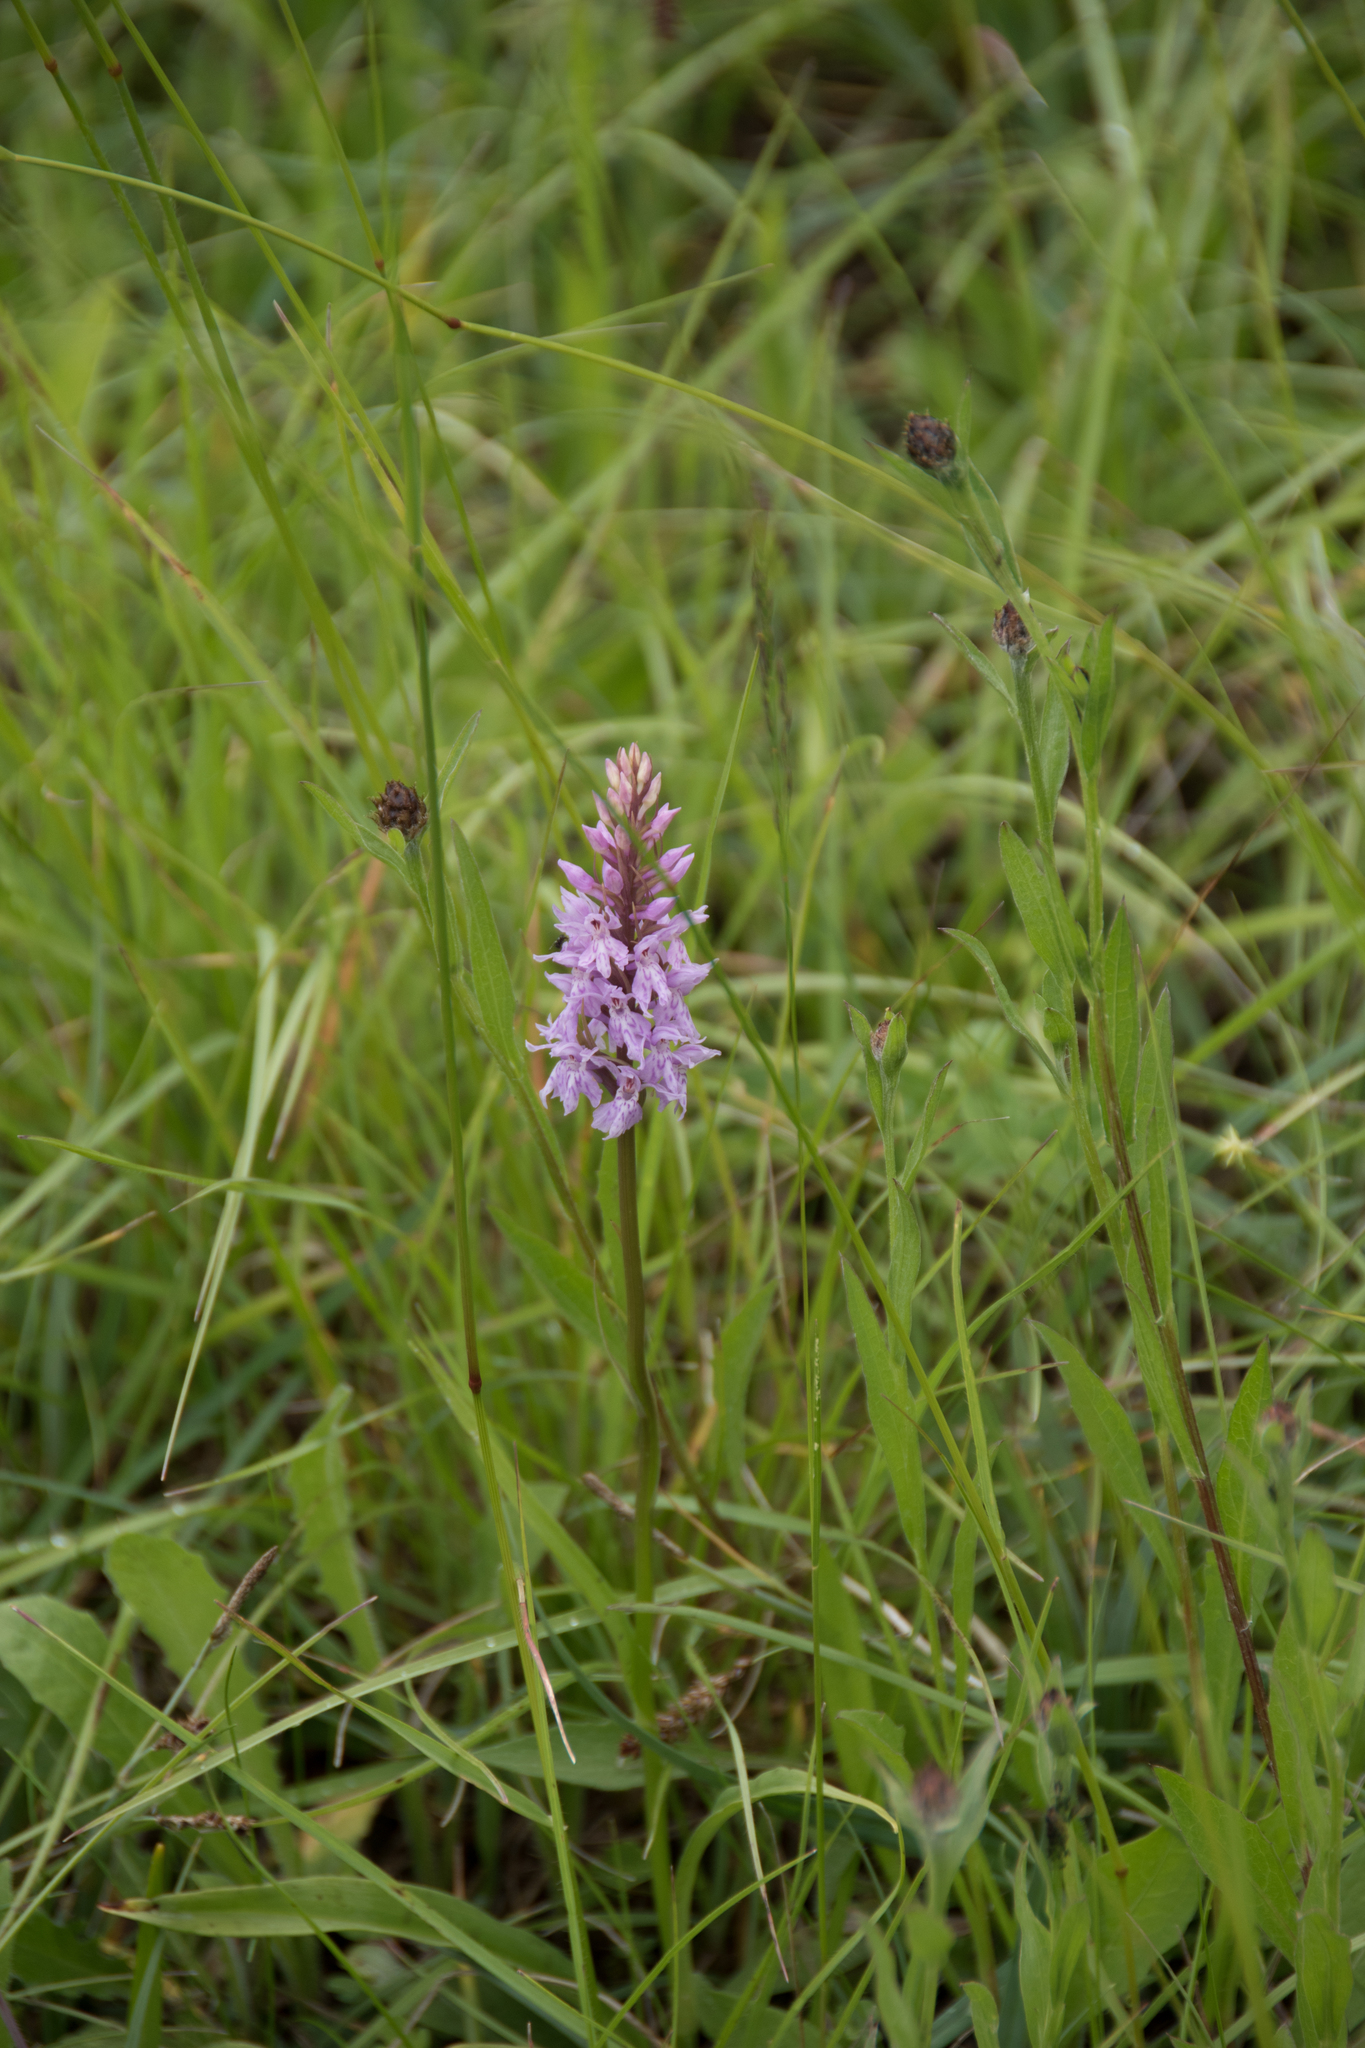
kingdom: Plantae
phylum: Tracheophyta
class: Liliopsida
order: Asparagales
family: Orchidaceae
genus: Dactylorhiza
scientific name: Dactylorhiza maculata
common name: Heath spotted-orchid
